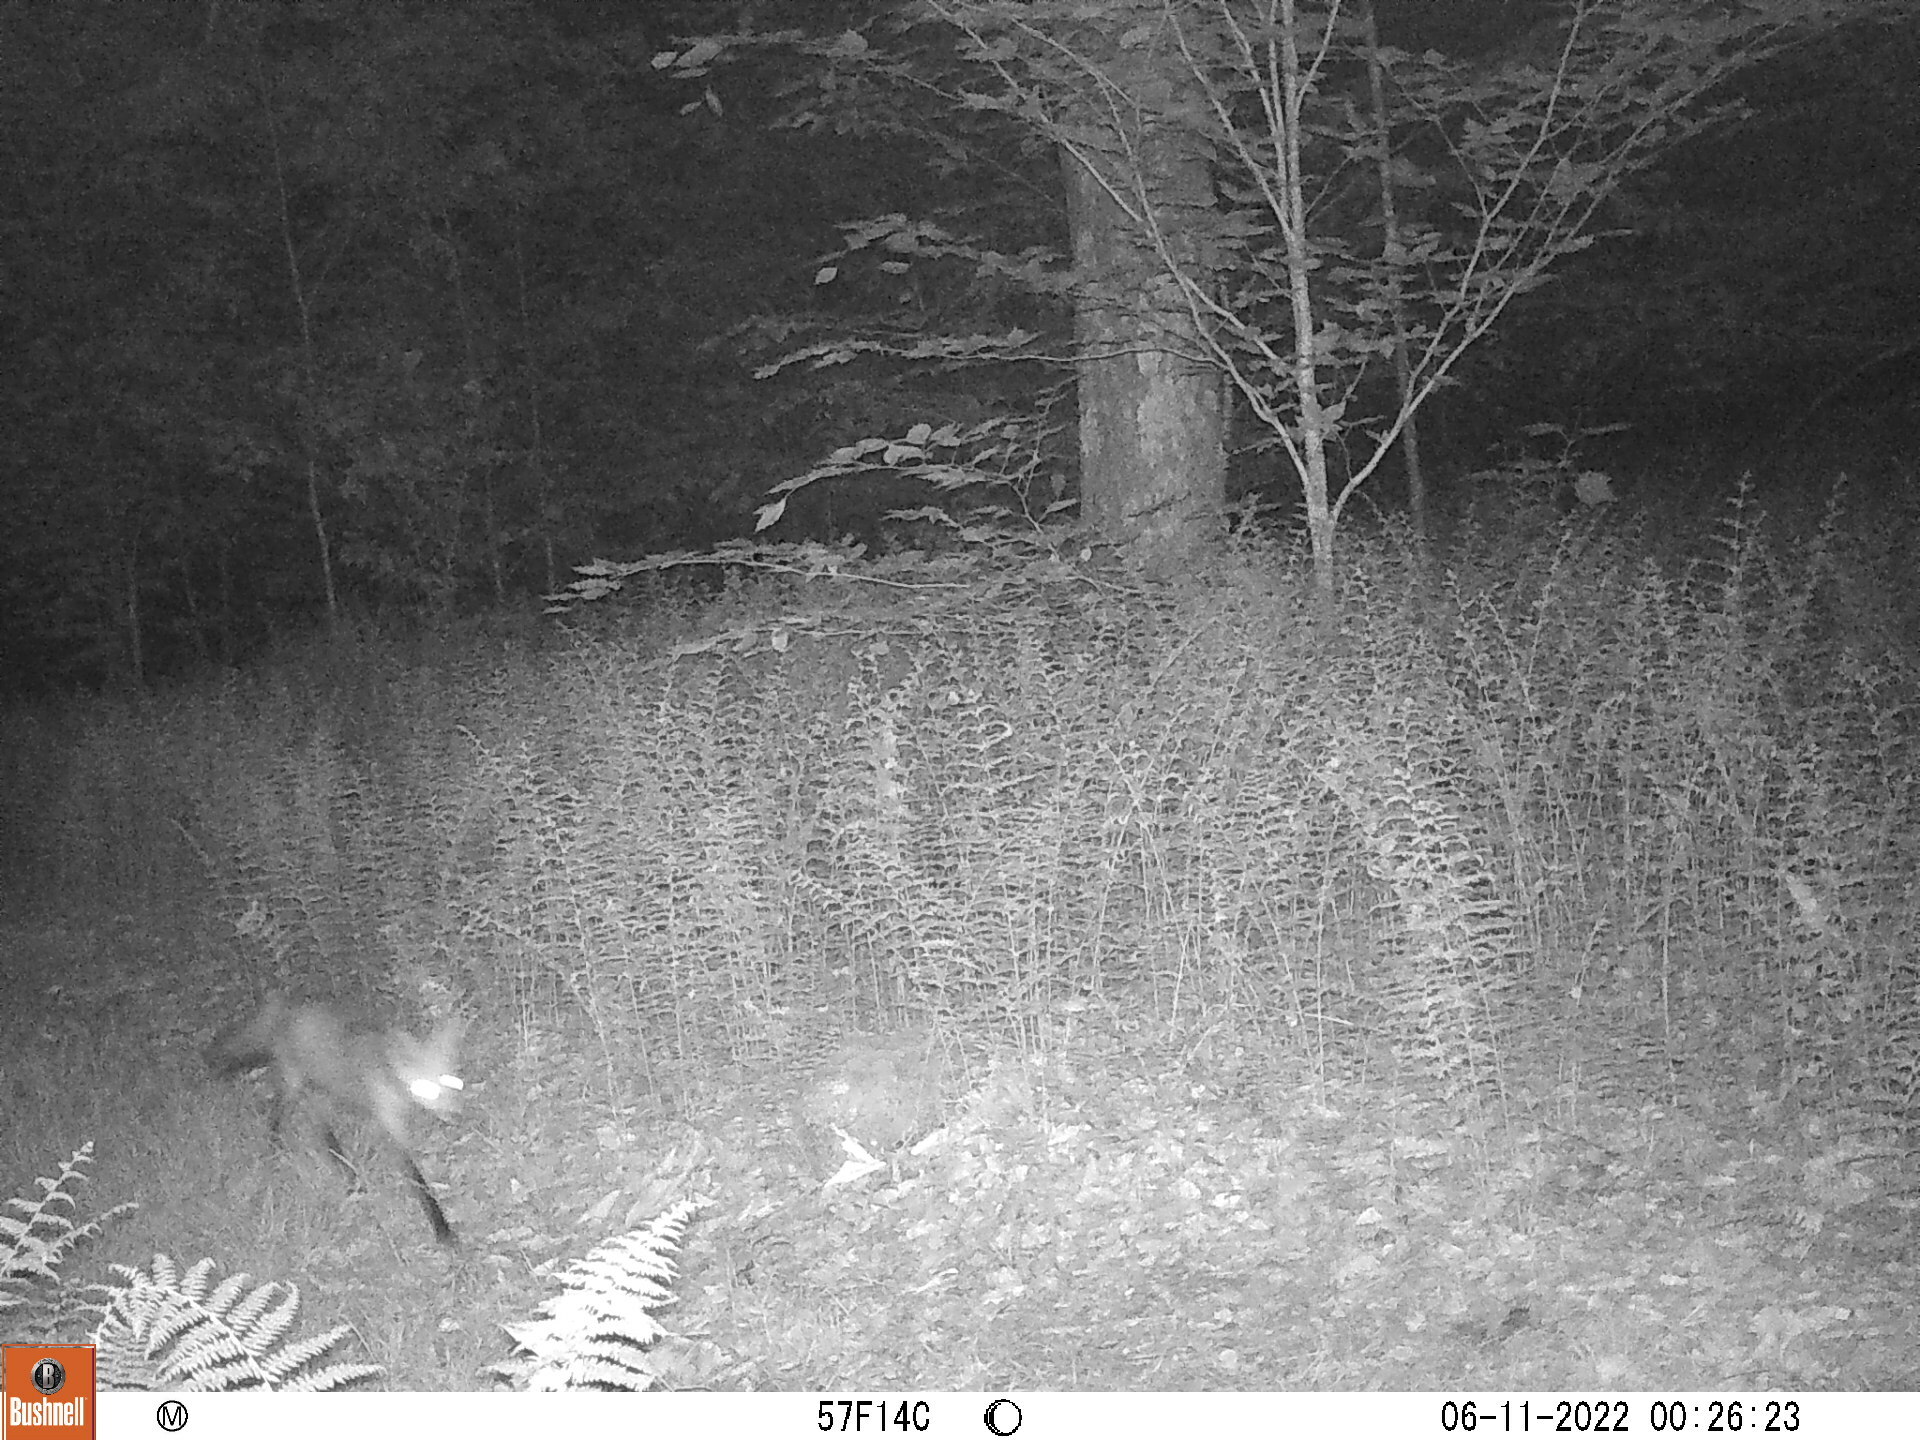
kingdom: Animalia
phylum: Chordata
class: Mammalia
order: Carnivora
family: Canidae
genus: Vulpes
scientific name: Vulpes vulpes
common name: Red fox
